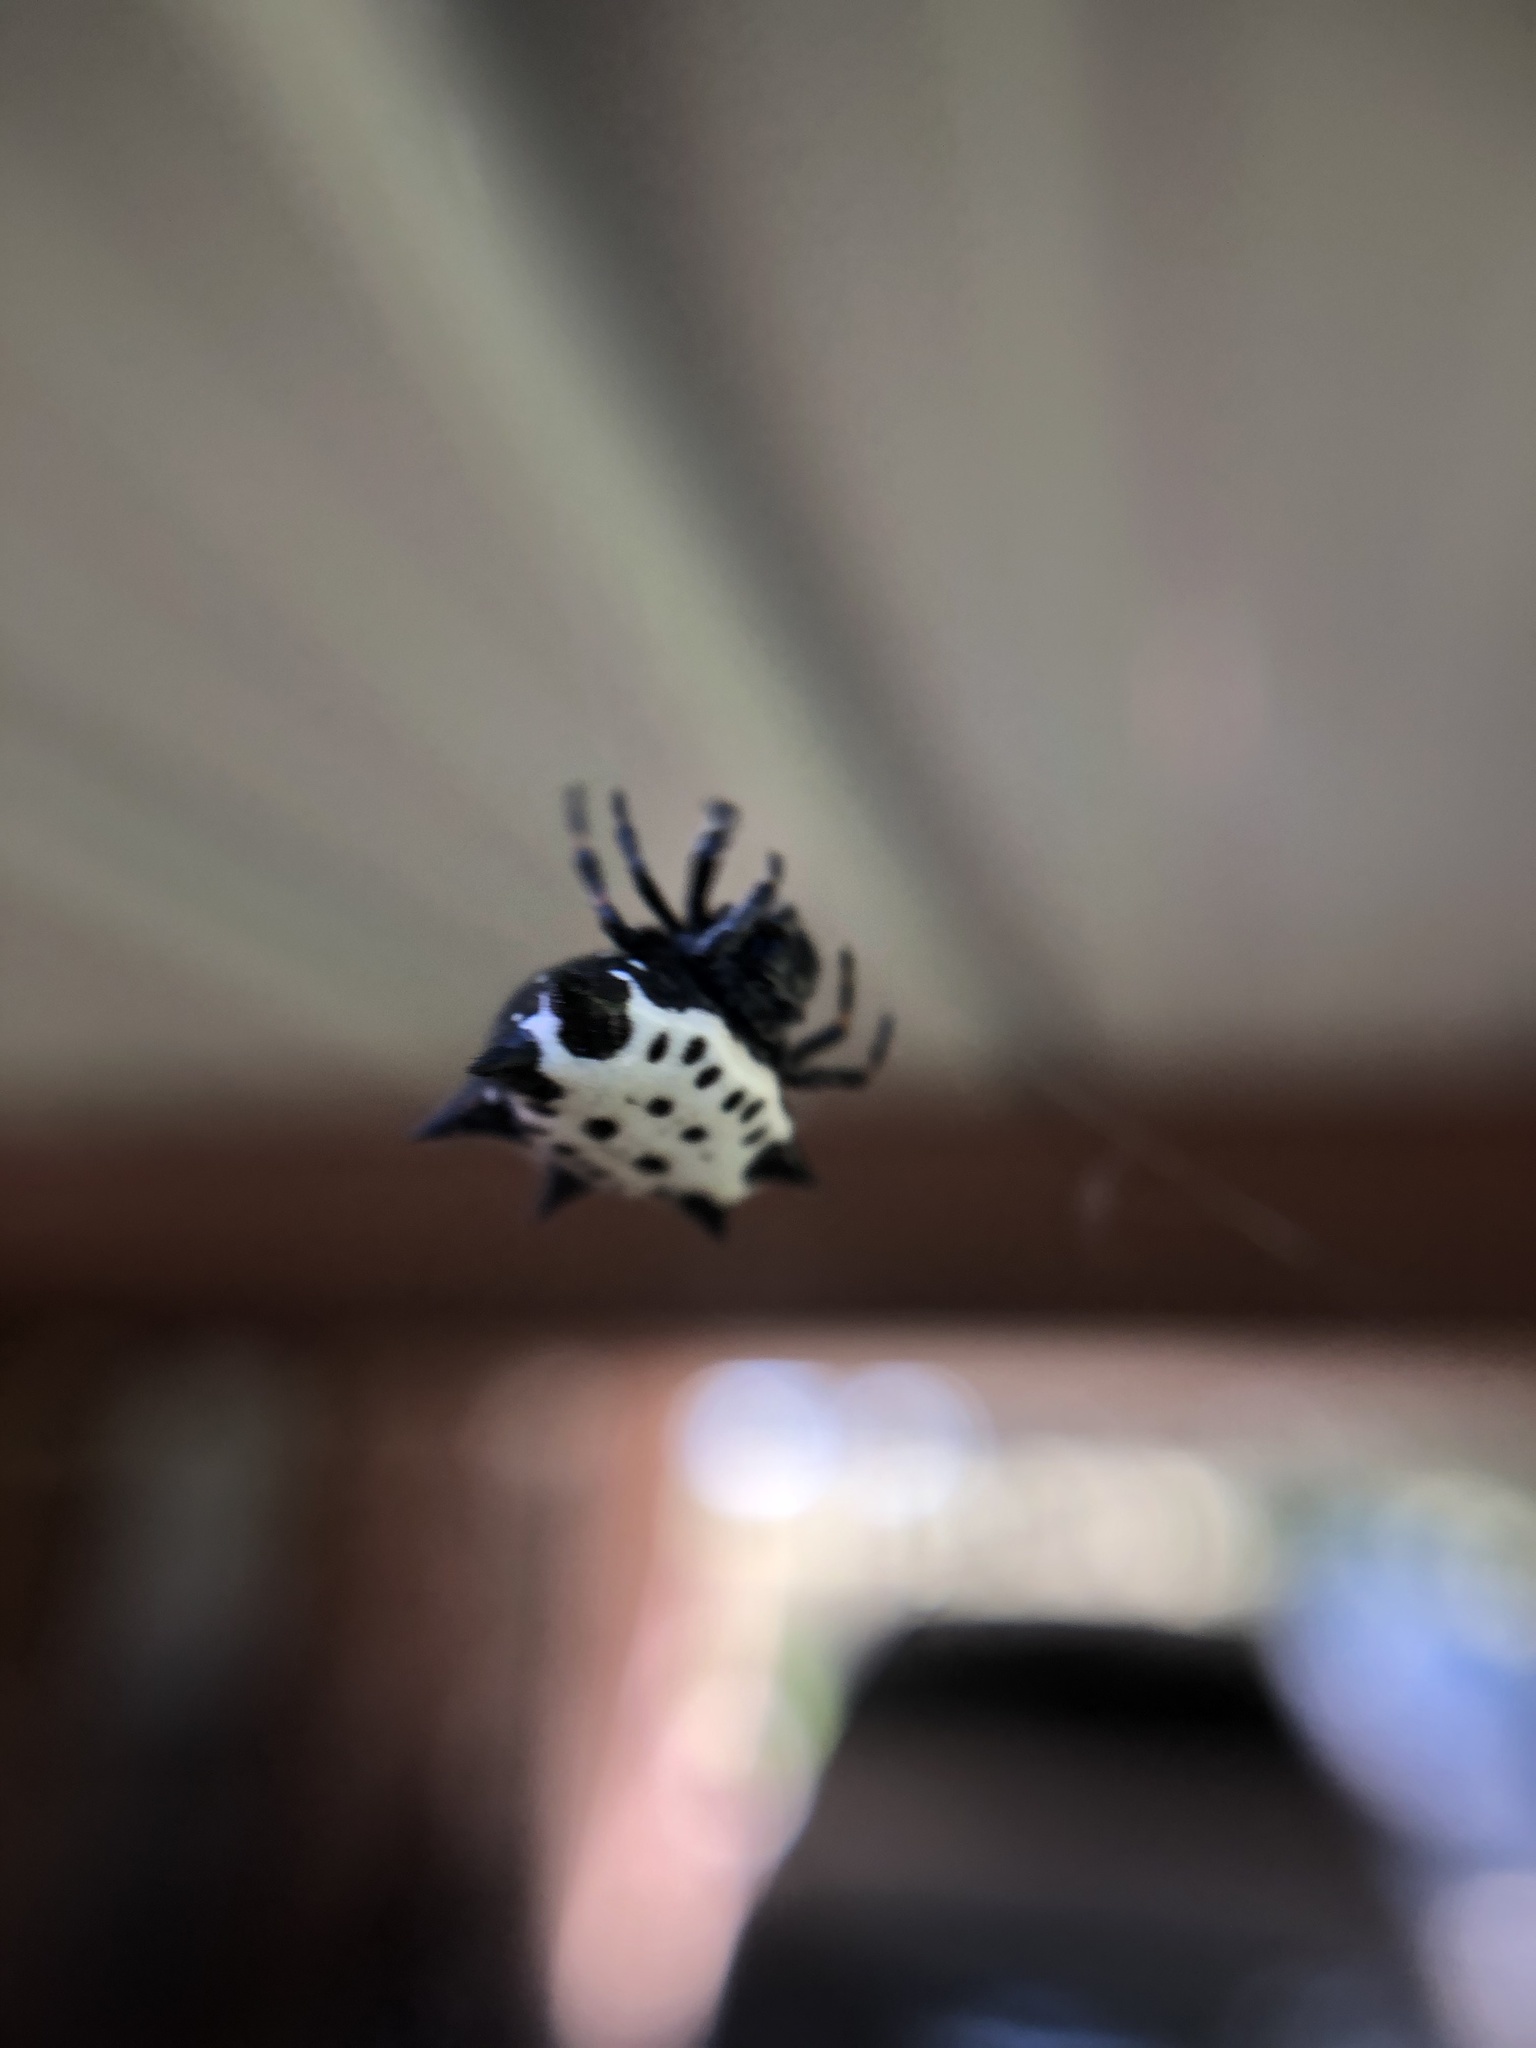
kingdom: Animalia
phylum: Arthropoda
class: Arachnida
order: Araneae
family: Araneidae
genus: Gasteracantha
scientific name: Gasteracantha cancriformis
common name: Orb weavers
